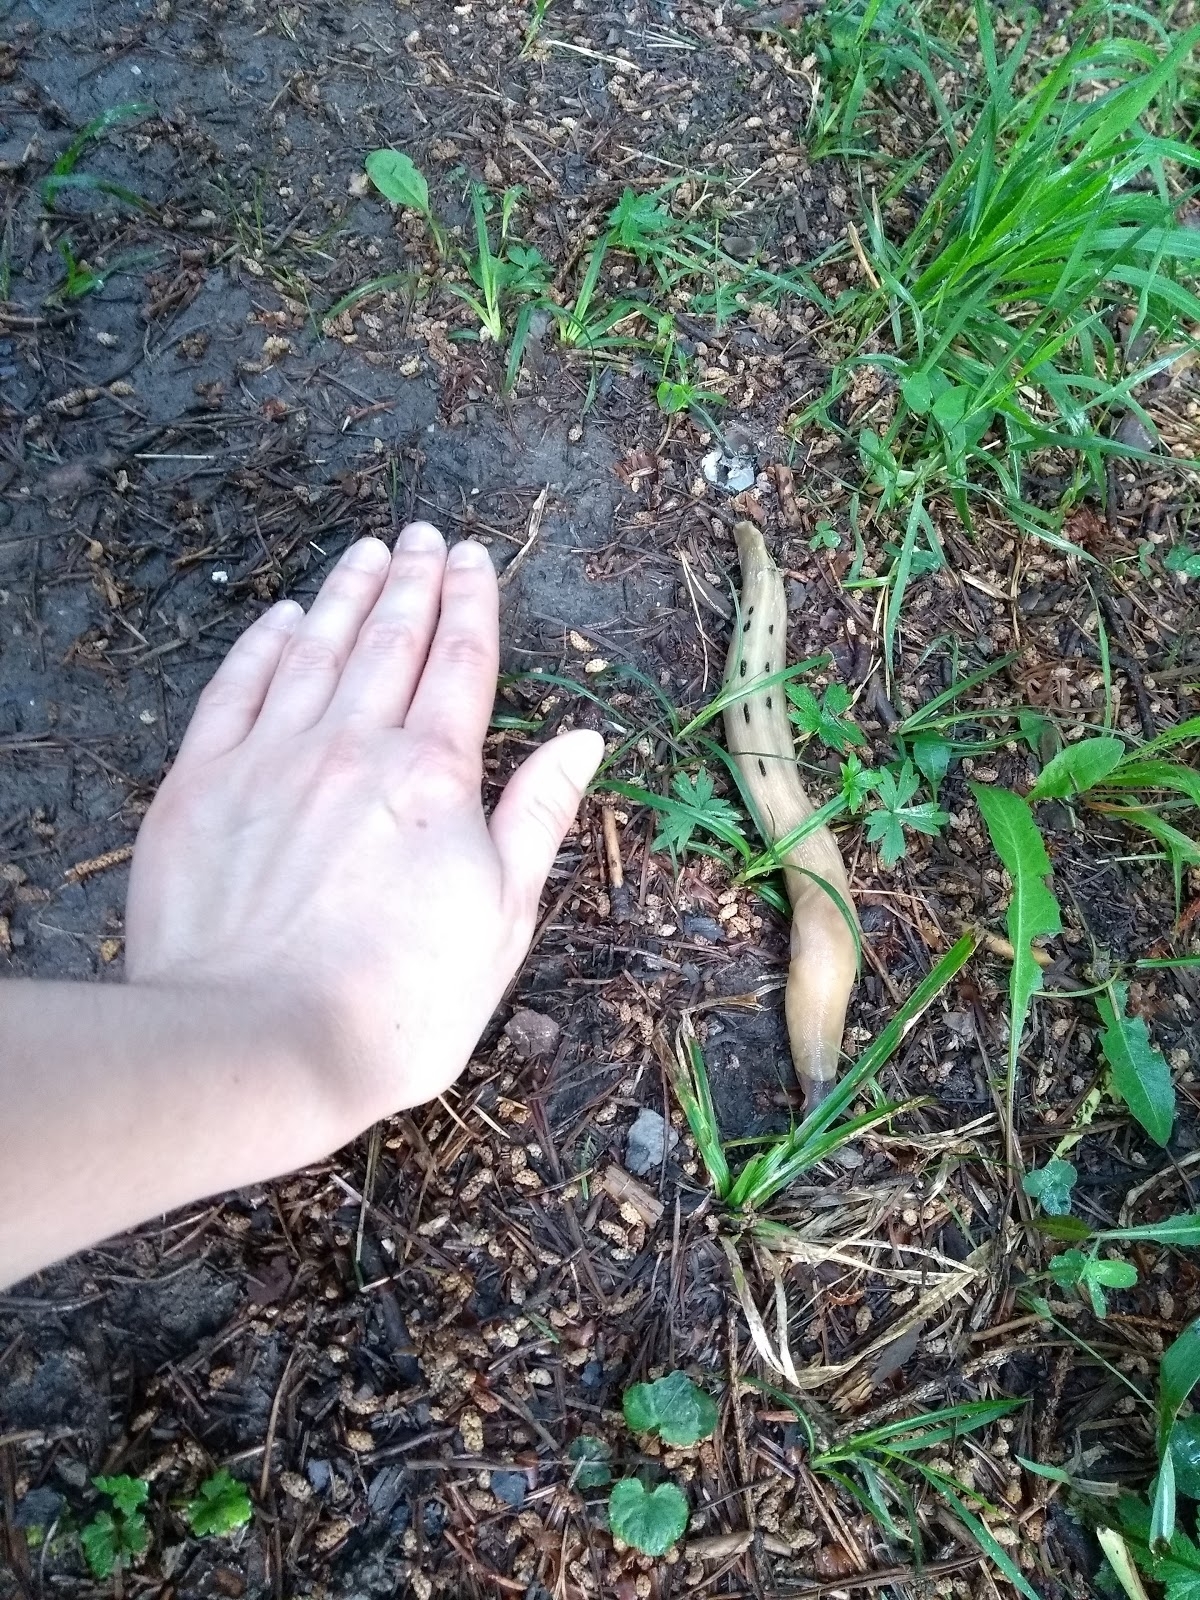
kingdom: Animalia
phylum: Mollusca
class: Gastropoda
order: Stylommatophora
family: Limacidae
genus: Limax
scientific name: Limax cinereoniger
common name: Ash-black slug
